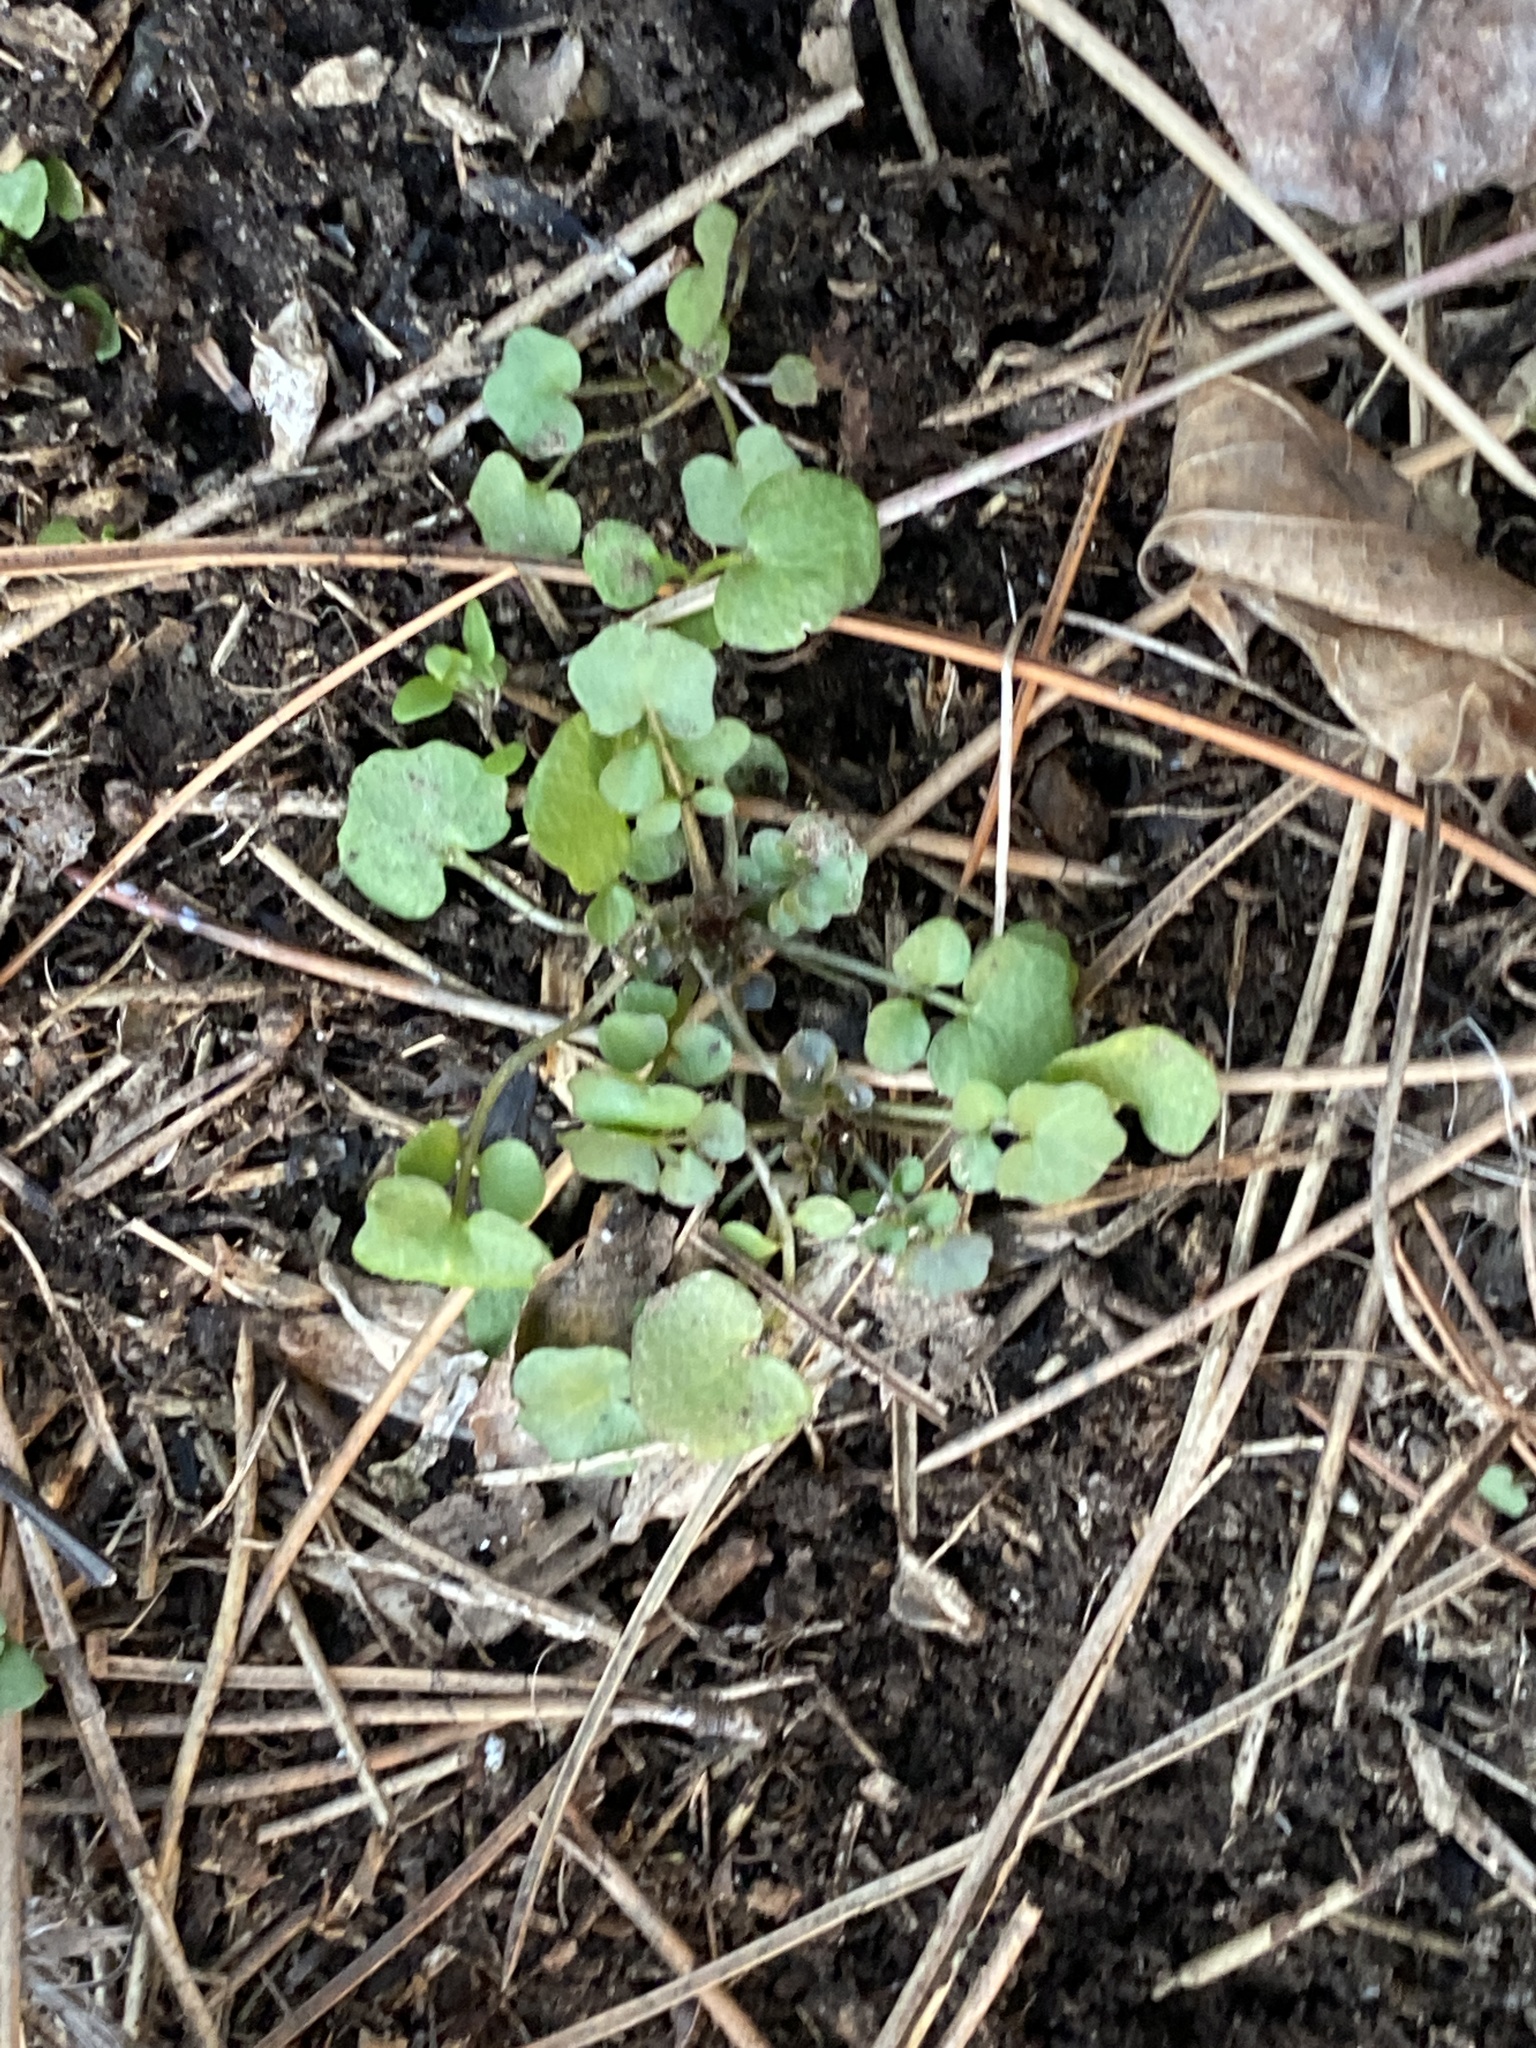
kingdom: Plantae
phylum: Tracheophyta
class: Magnoliopsida
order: Brassicales
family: Brassicaceae
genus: Cardamine
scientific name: Cardamine hirsuta
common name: Hairy bittercress
